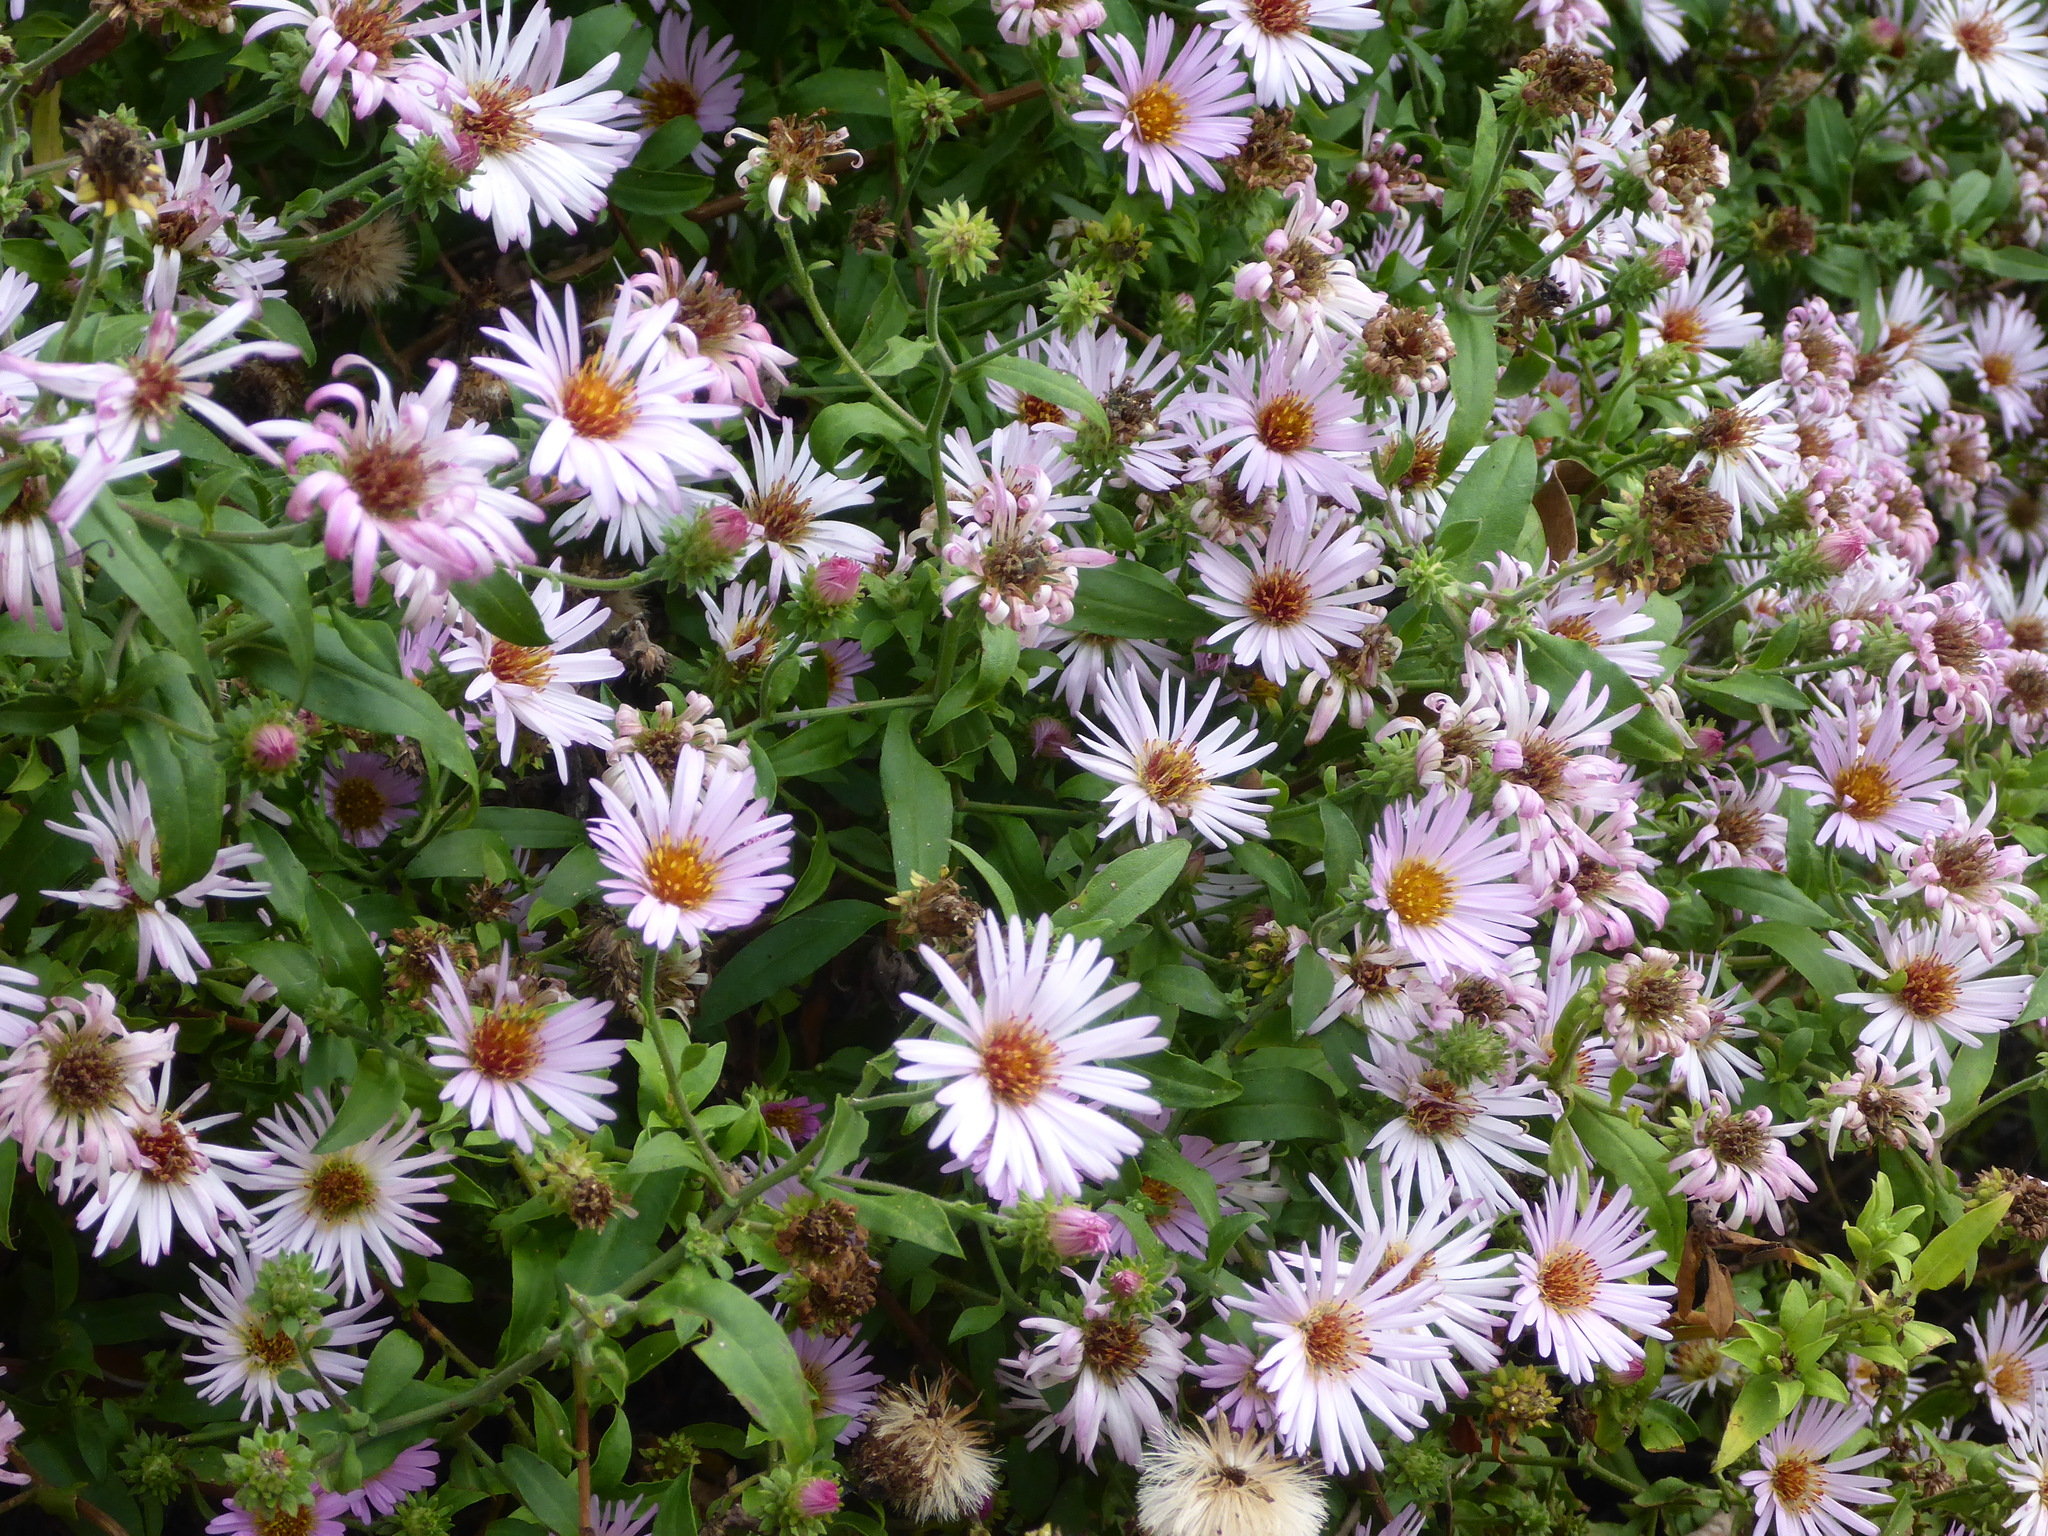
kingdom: Plantae
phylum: Tracheophyta
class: Magnoliopsida
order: Asterales
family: Asteraceae
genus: Ampelaster
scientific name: Ampelaster carolinianus
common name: Climbing aster
